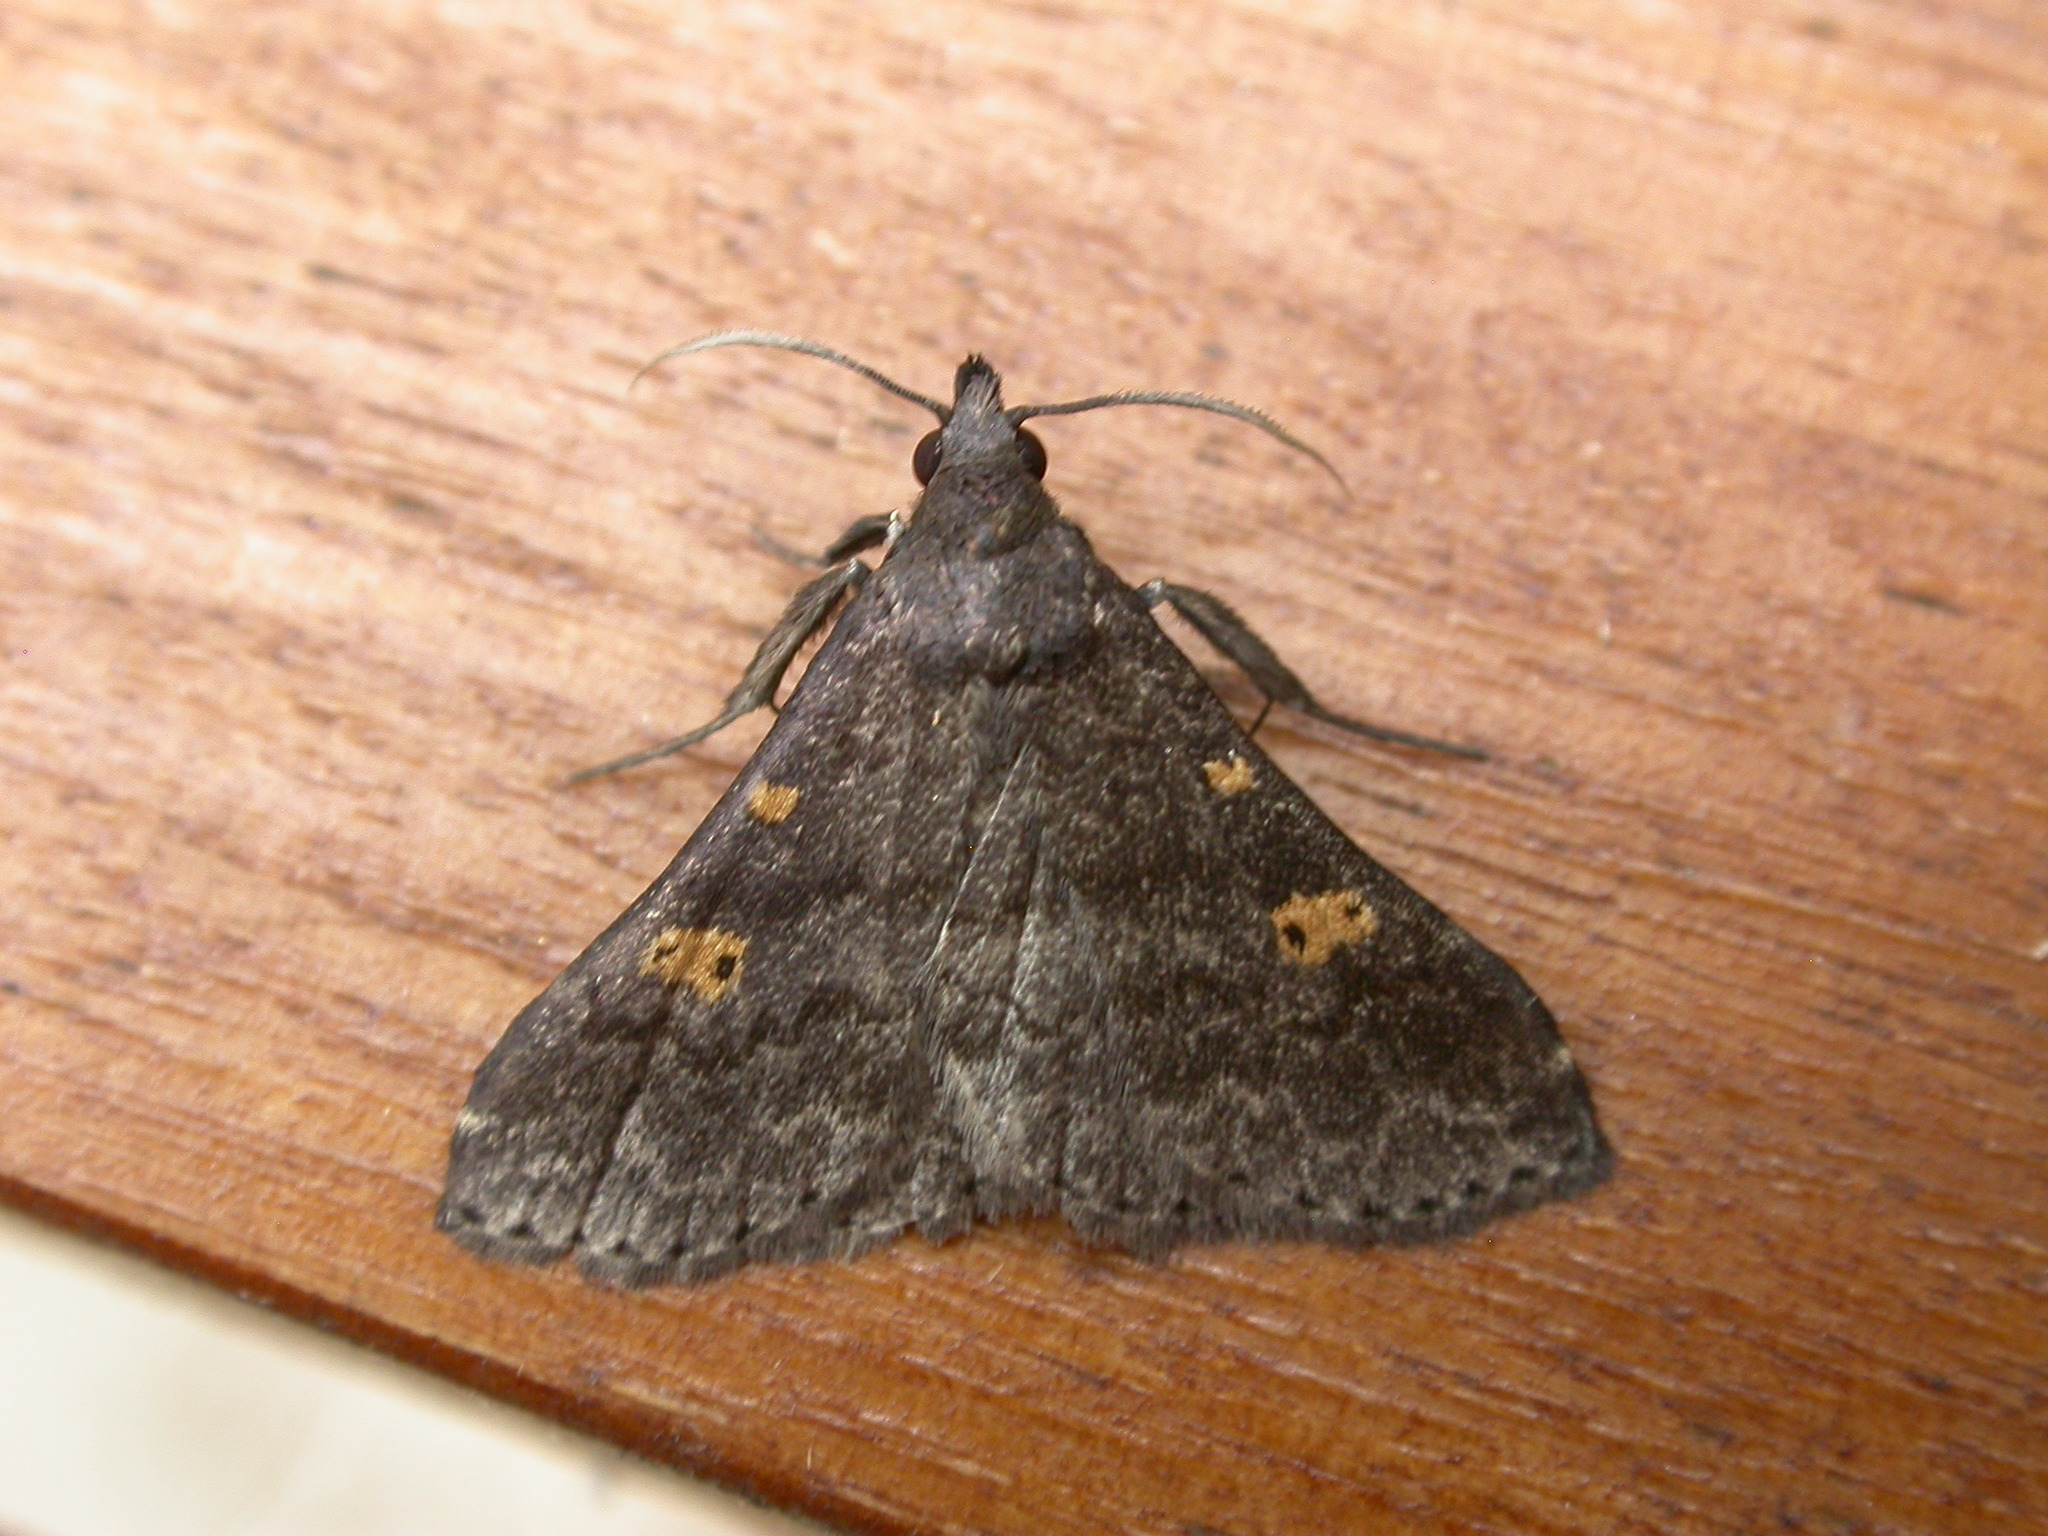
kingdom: Animalia
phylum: Arthropoda
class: Insecta
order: Lepidoptera
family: Erebidae
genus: Naarda
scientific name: Naarda xanthonephra
